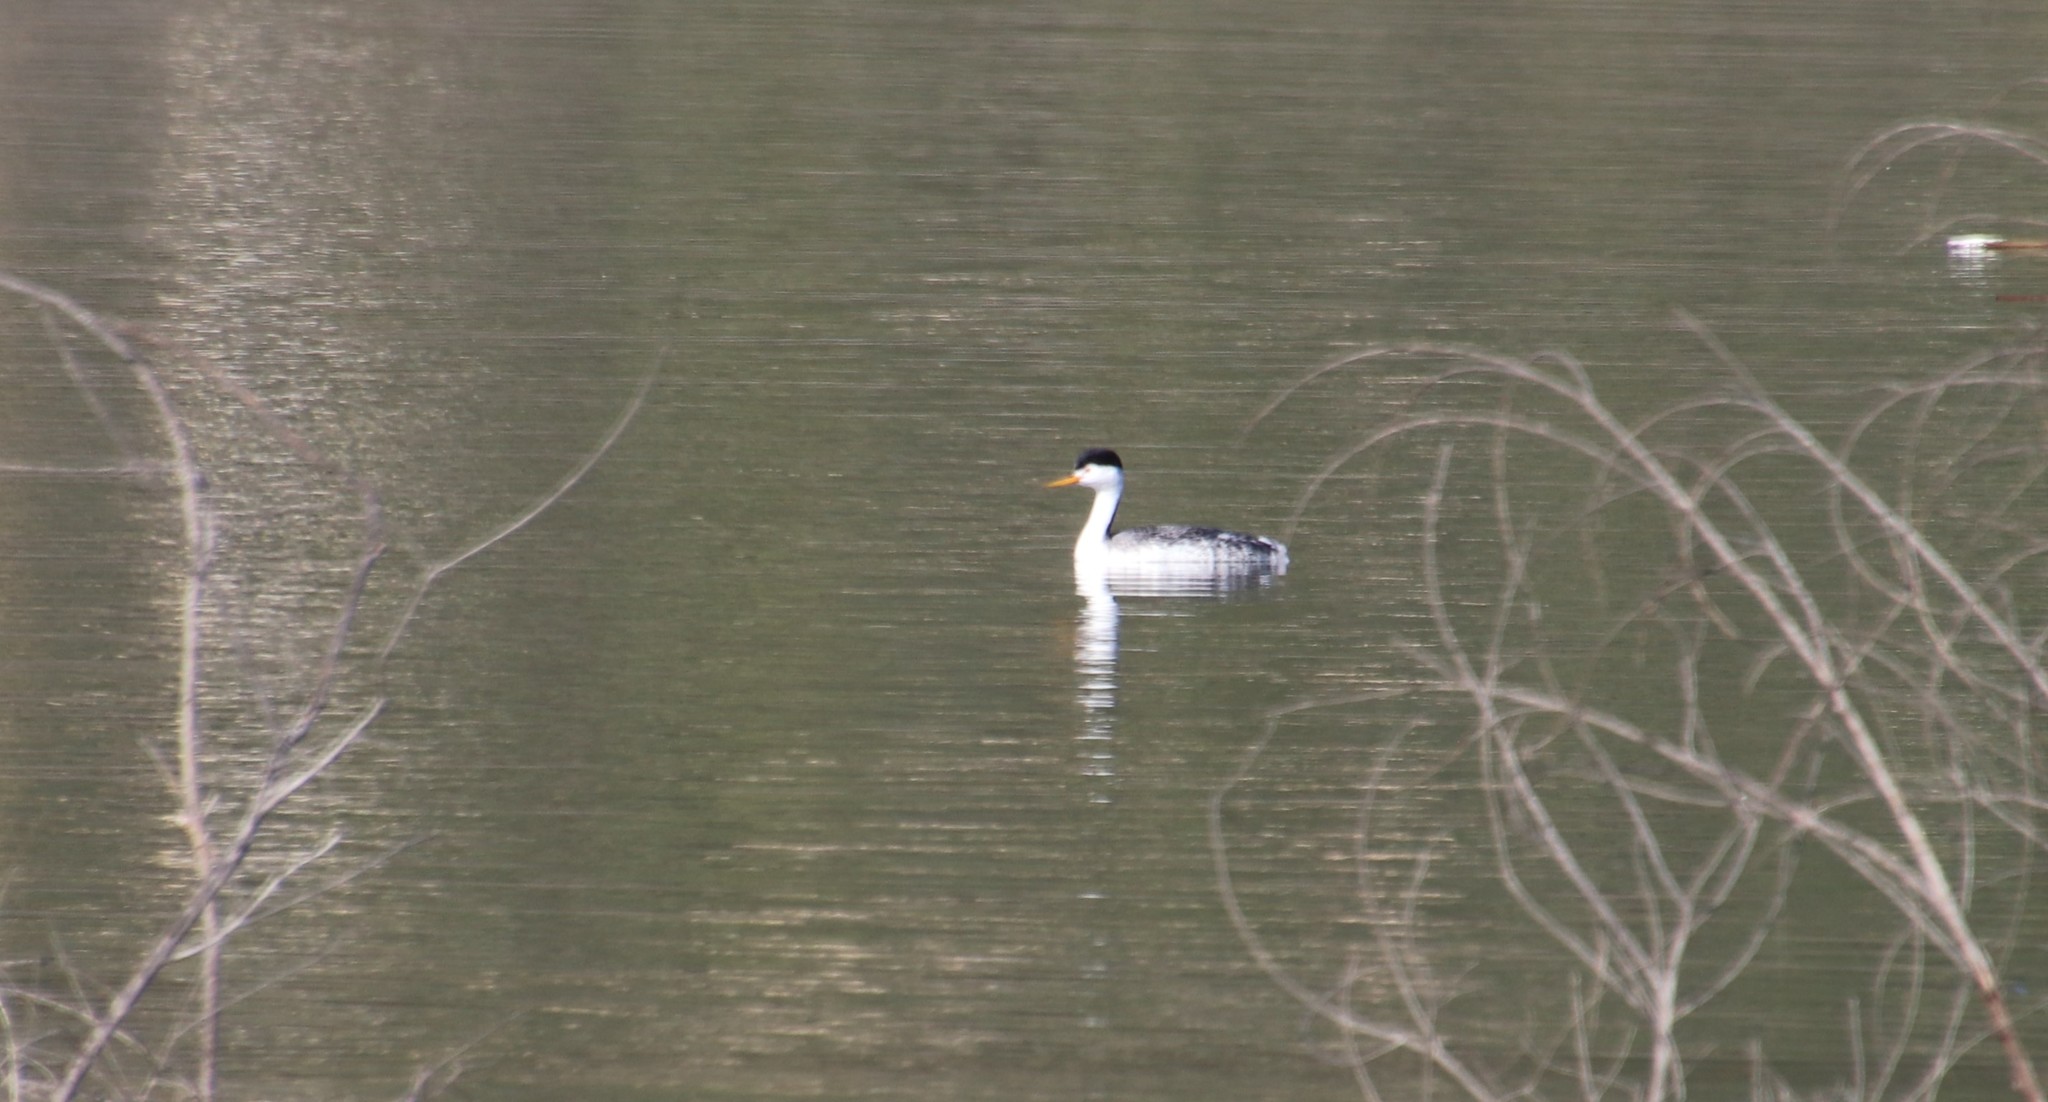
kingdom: Animalia
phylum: Chordata
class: Aves
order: Podicipediformes
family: Podicipedidae
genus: Aechmophorus
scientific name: Aechmophorus clarkii
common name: Clark's grebe
